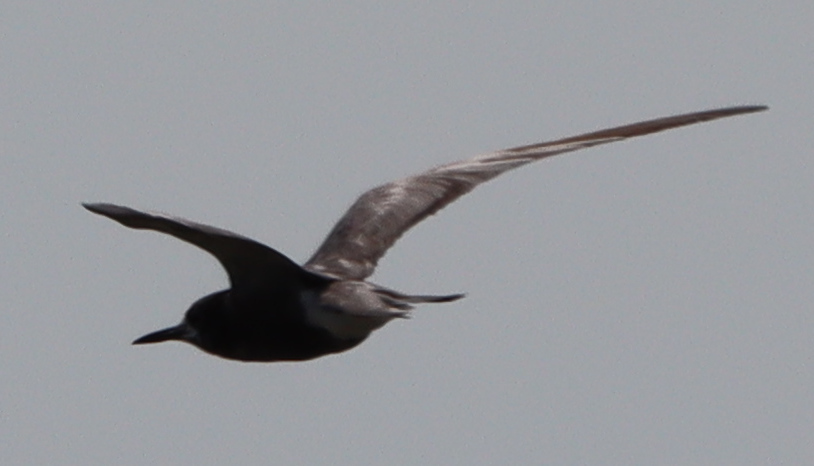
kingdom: Animalia
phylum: Chordata
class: Aves
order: Charadriiformes
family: Laridae
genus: Chlidonias
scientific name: Chlidonias niger
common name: Black tern
